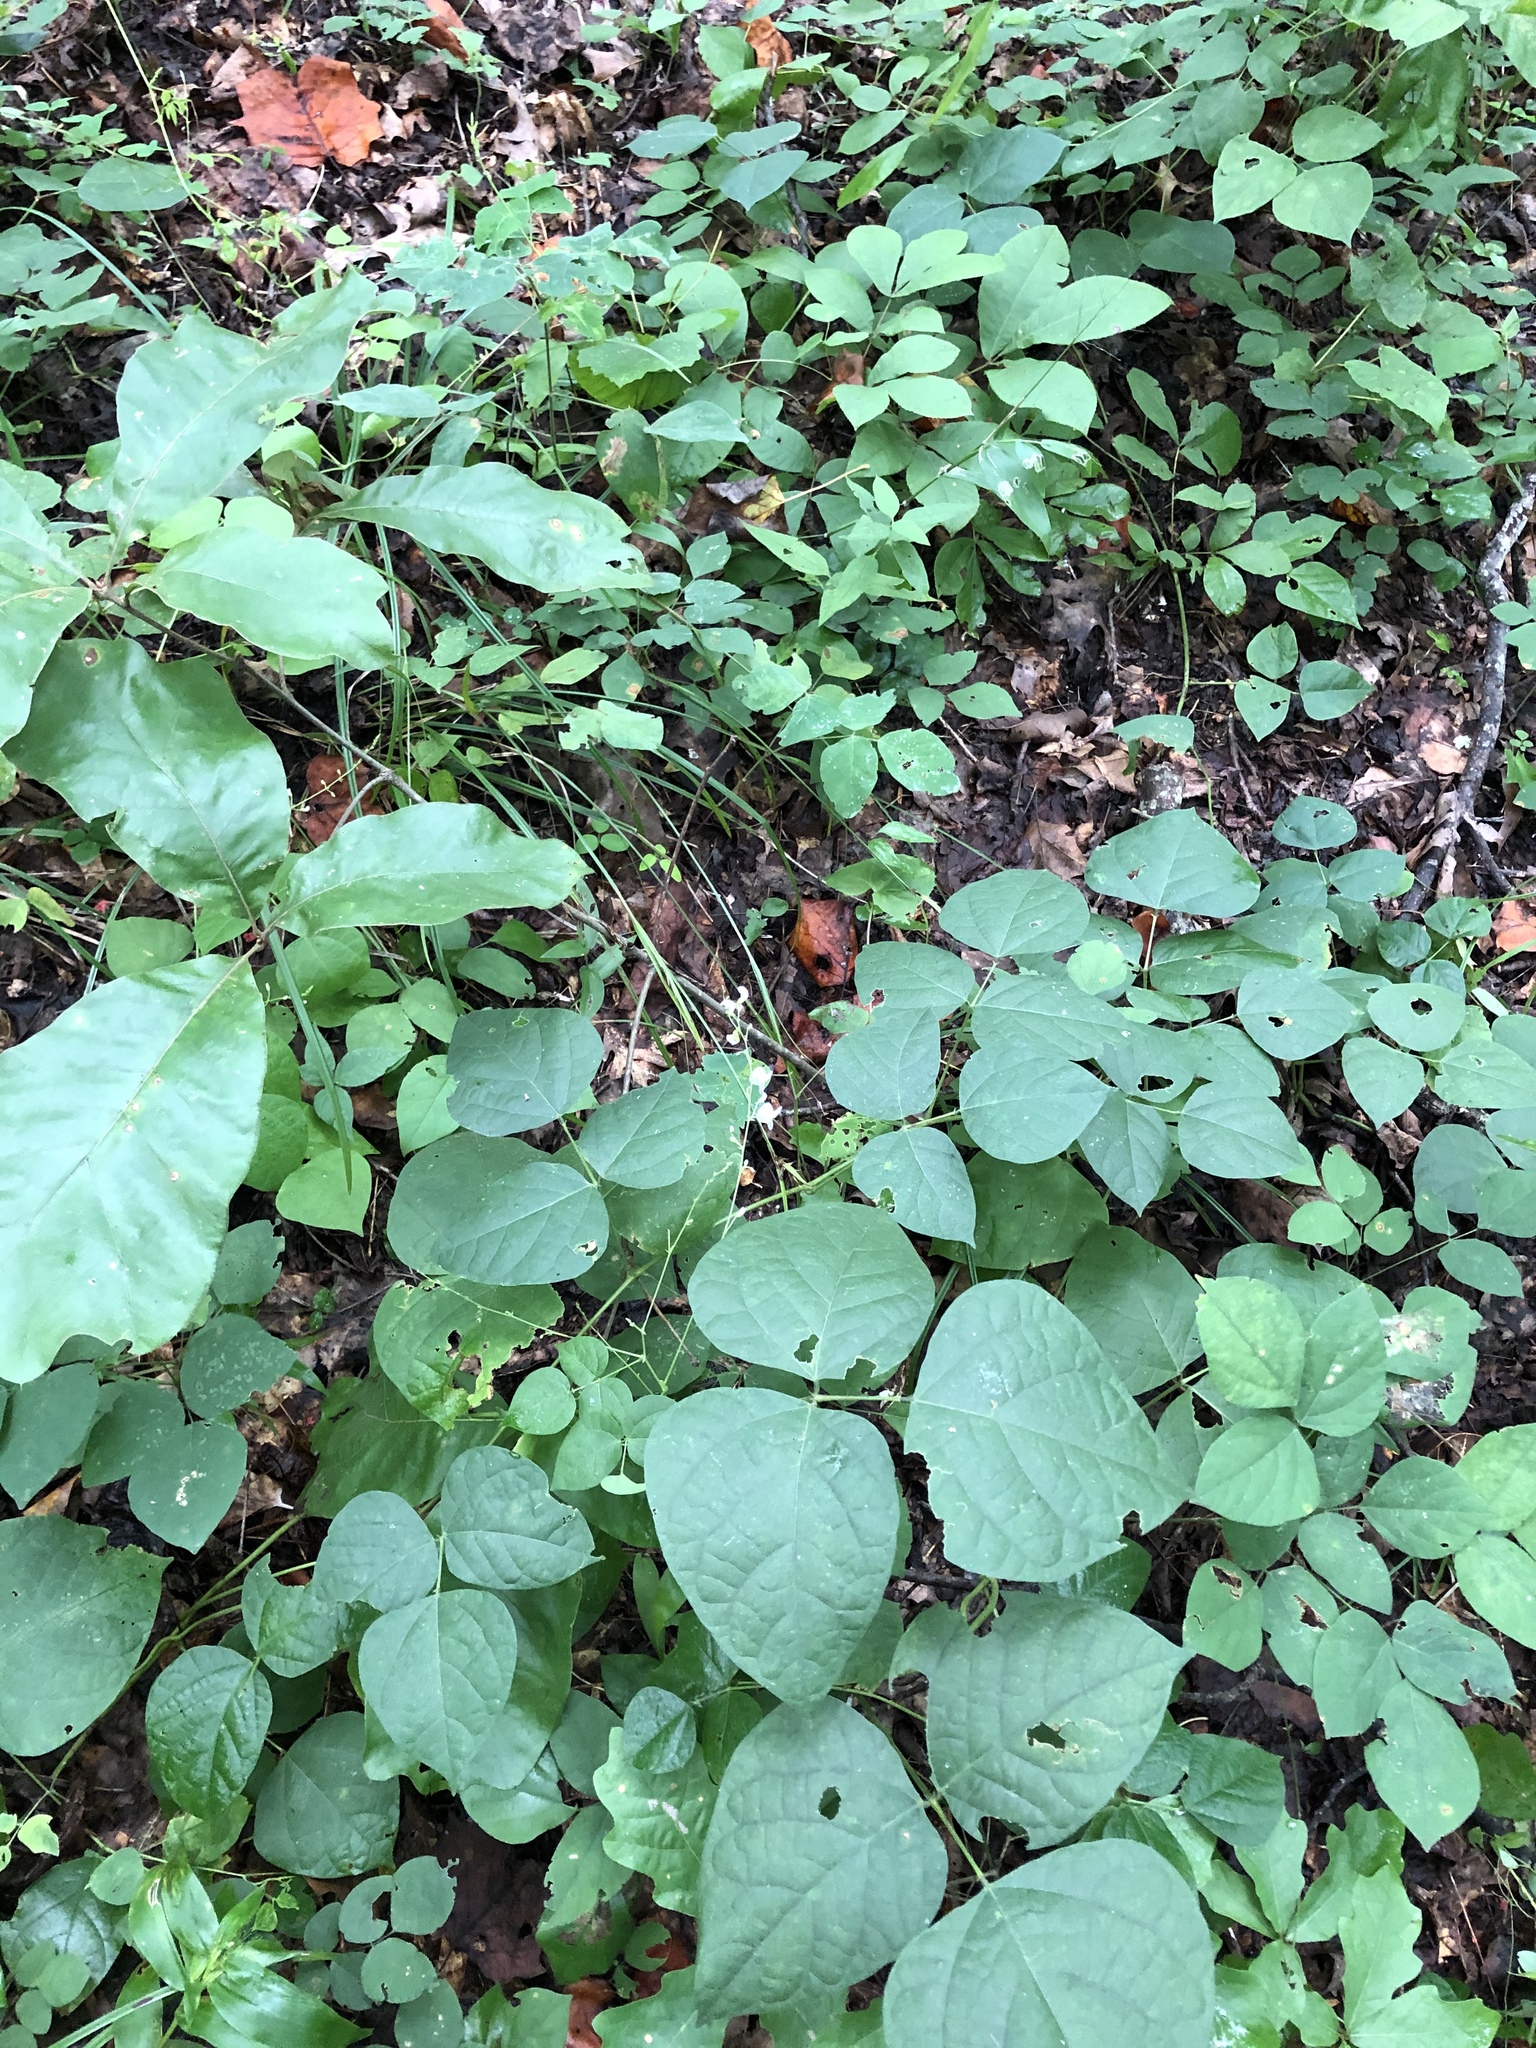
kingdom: Plantae
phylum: Tracheophyta
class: Magnoliopsida
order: Fabales
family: Fabaceae
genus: Phaseolus
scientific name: Phaseolus polystachios
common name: Thicket bean
